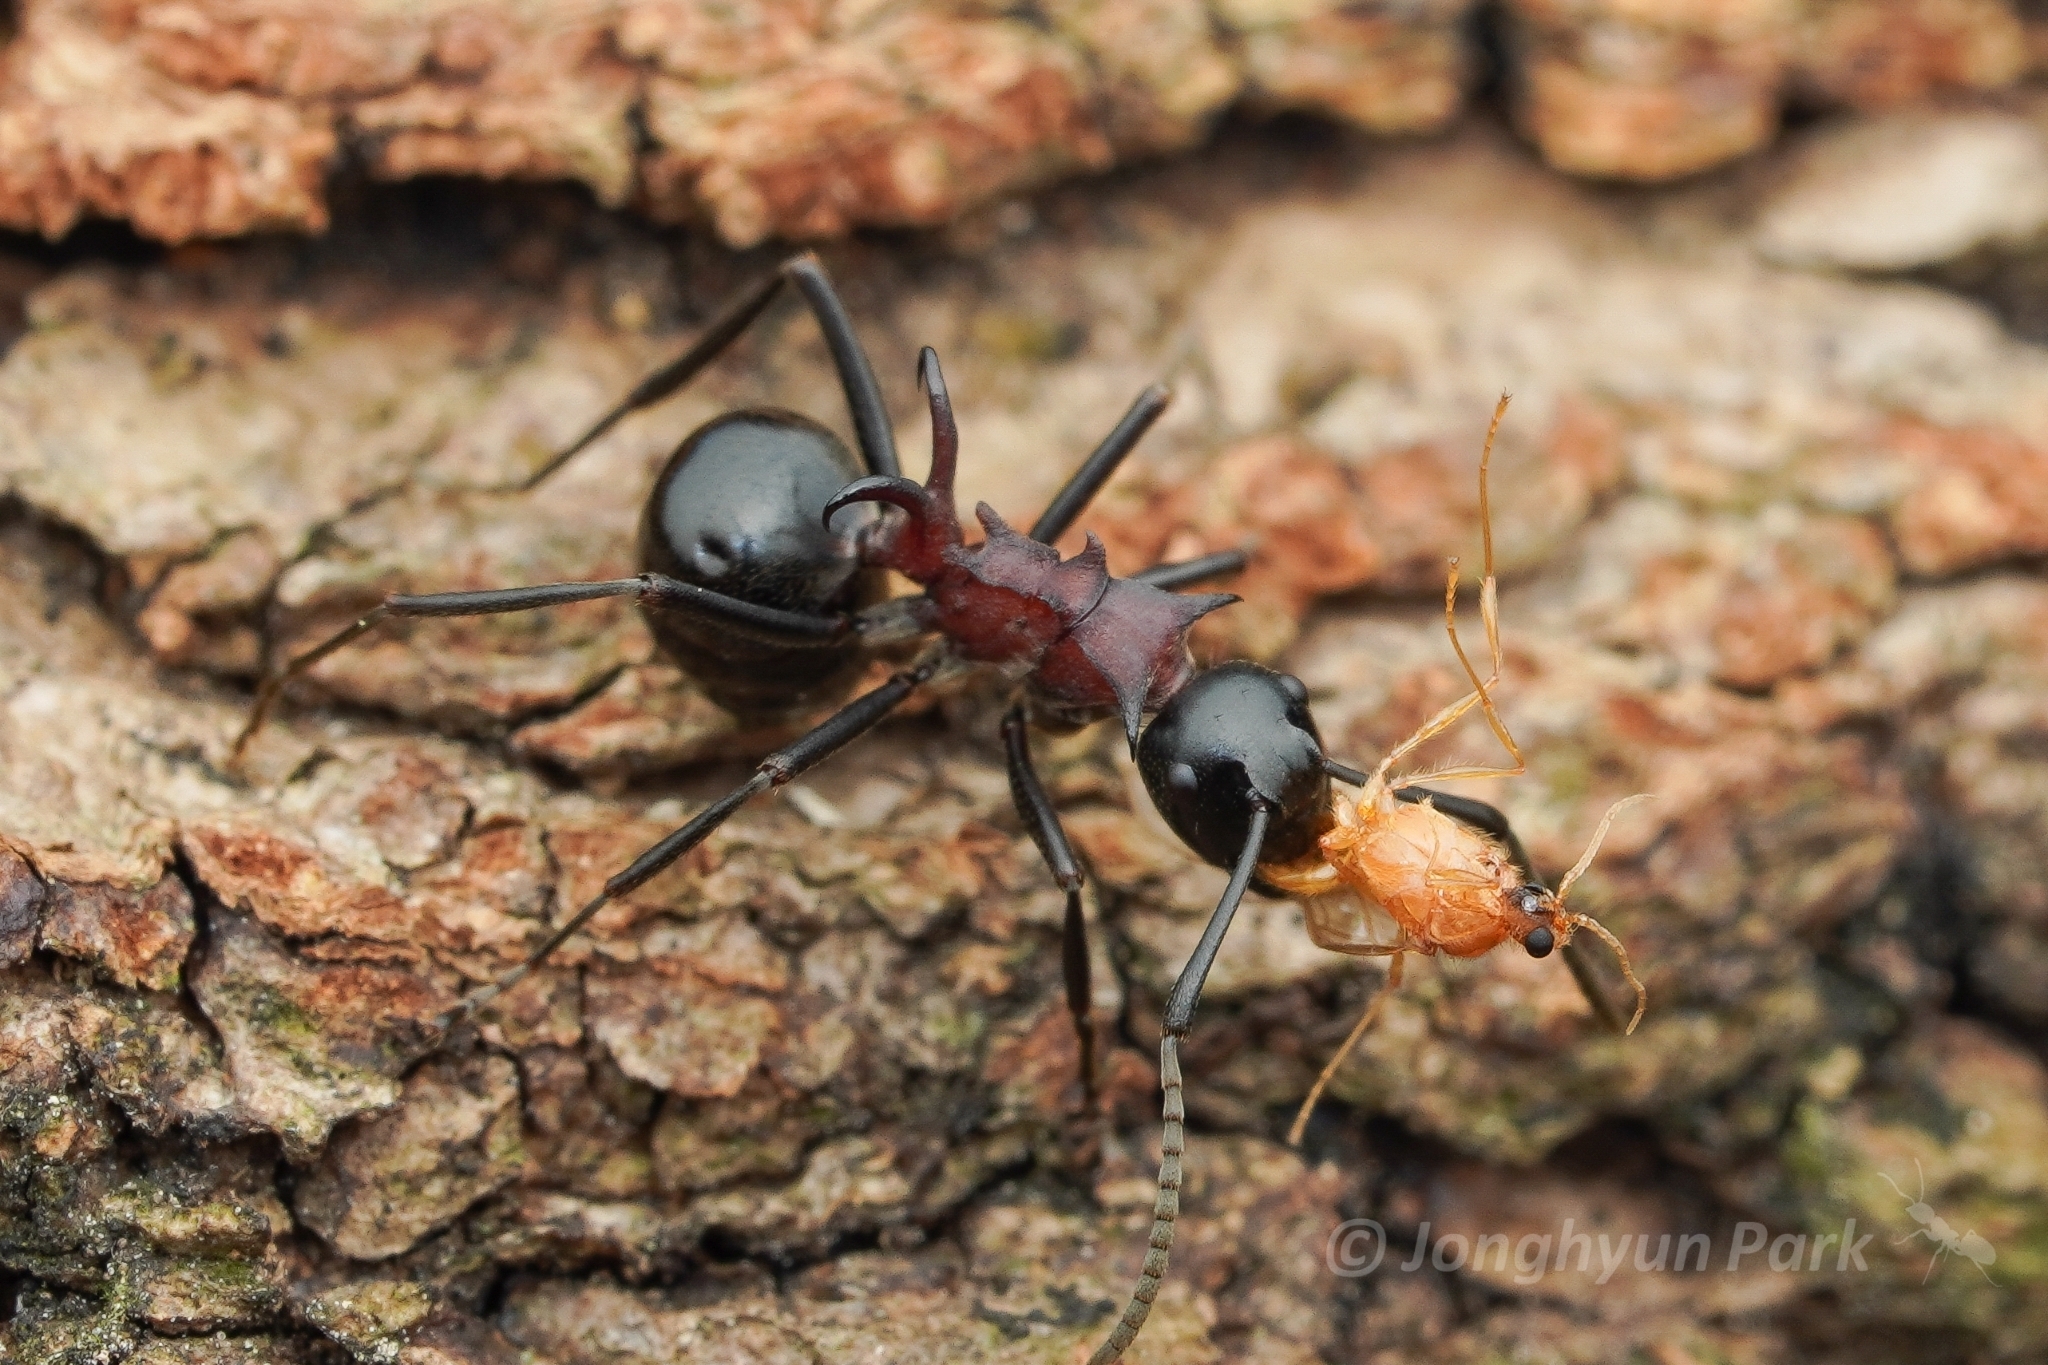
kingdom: Animalia
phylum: Arthropoda
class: Insecta
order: Hymenoptera
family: Formicidae
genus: Polyrhachis
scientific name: Polyrhachis lamellidens
